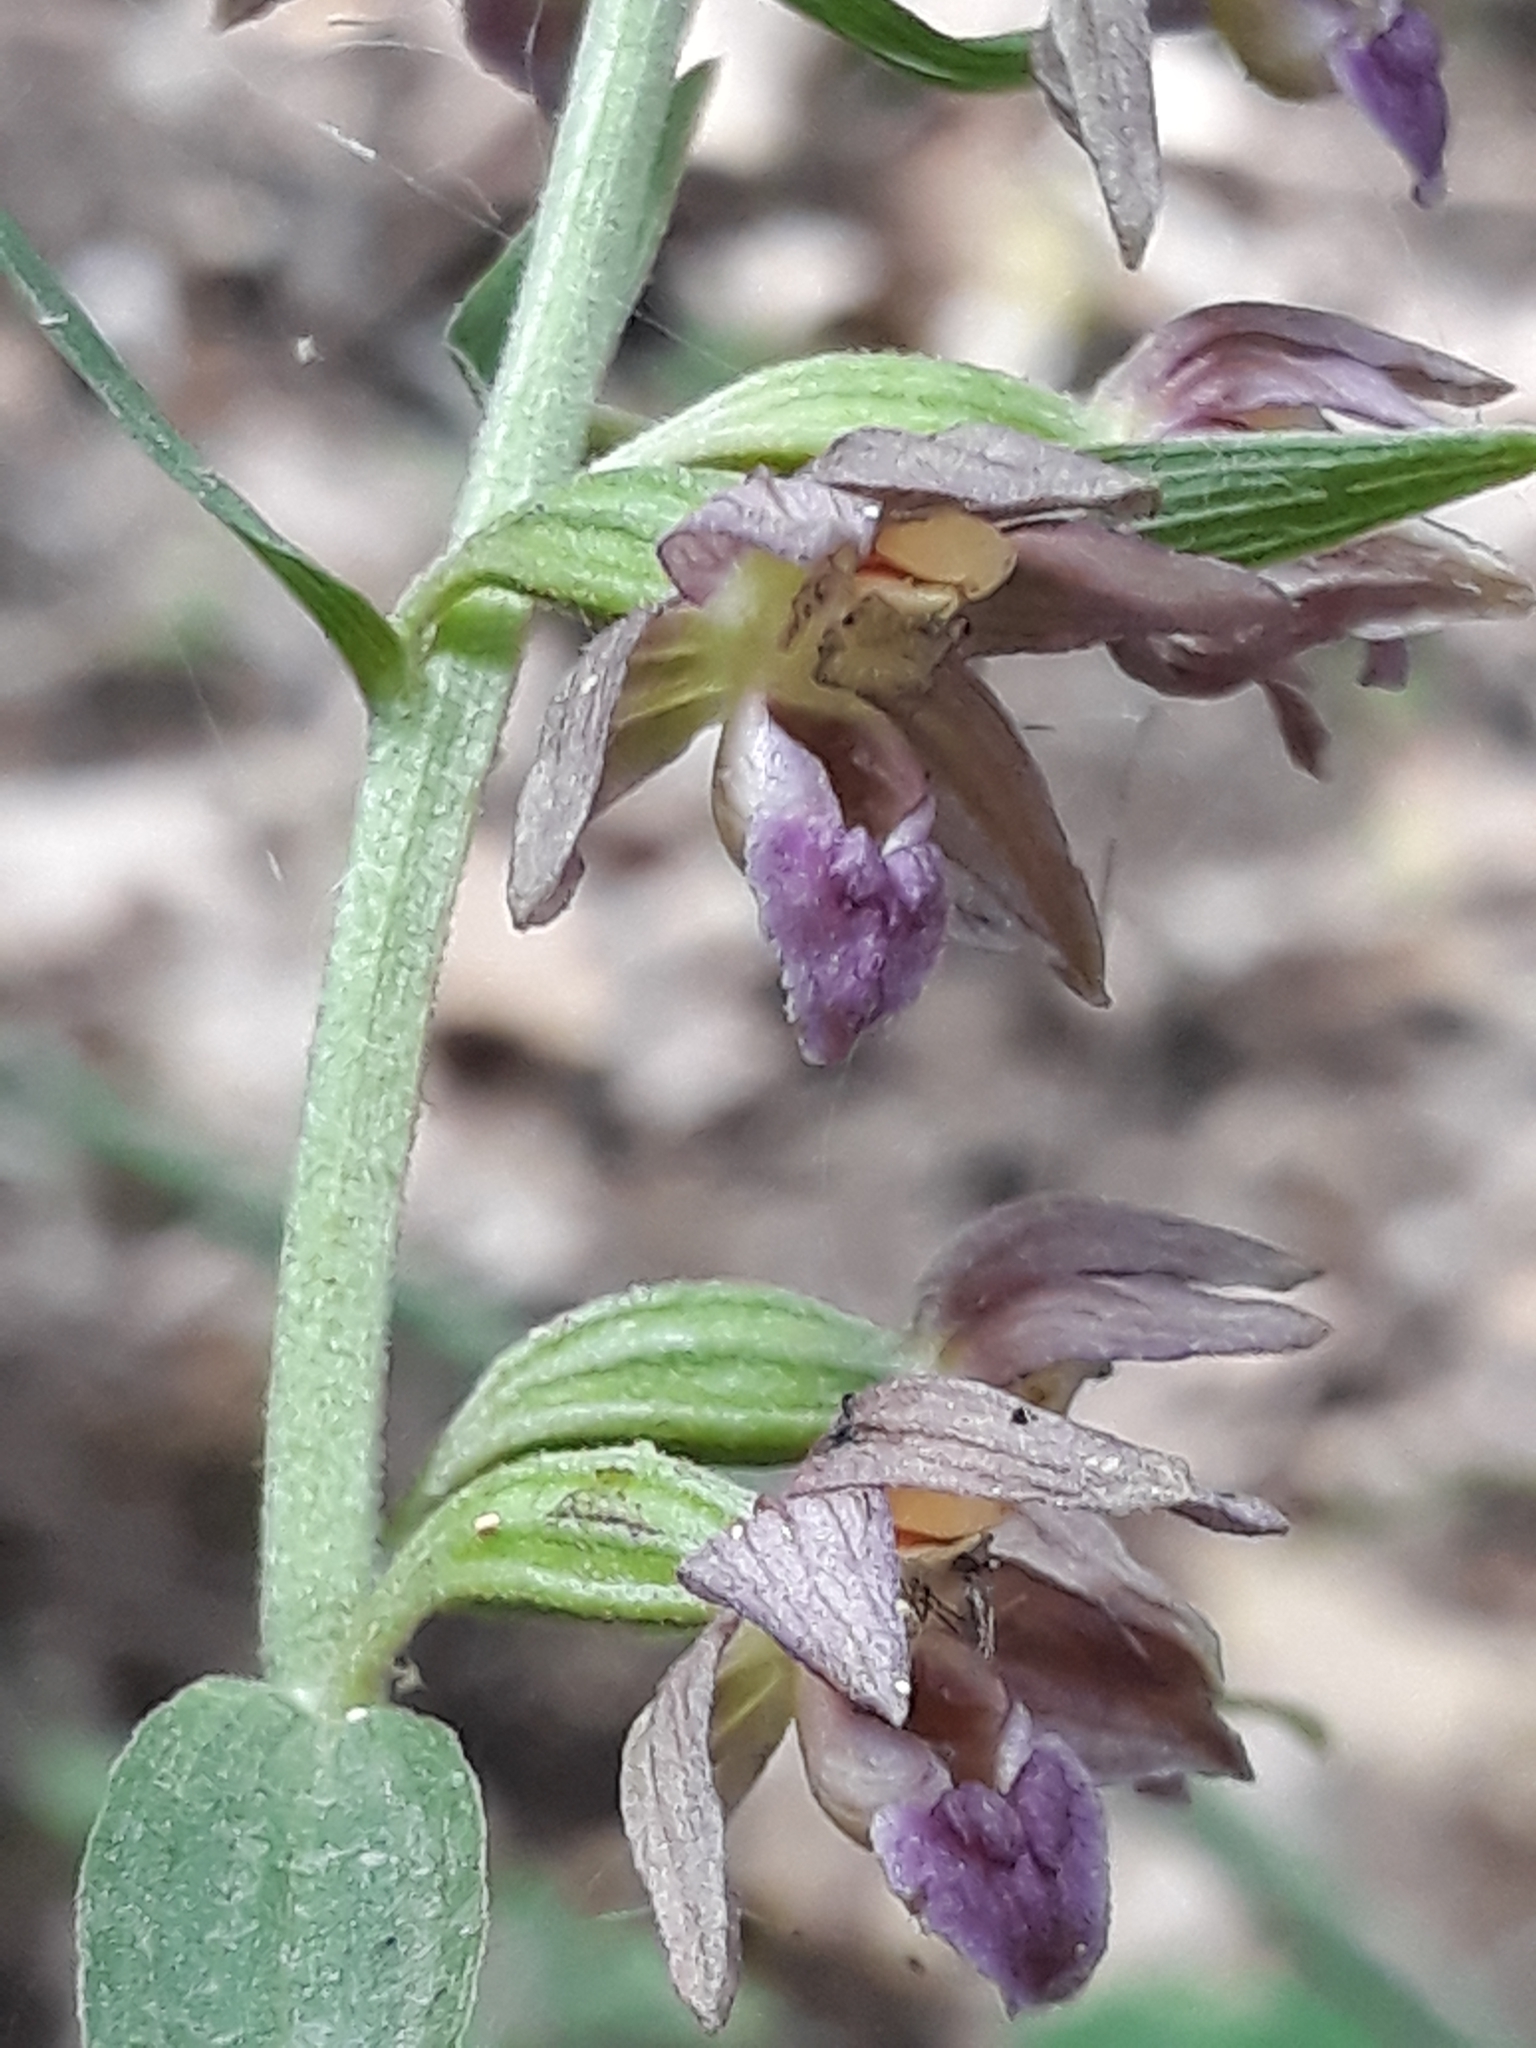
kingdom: Plantae
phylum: Tracheophyta
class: Liliopsida
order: Asparagales
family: Orchidaceae
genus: Epipactis
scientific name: Epipactis helleborine
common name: Broad-leaved helleborine
